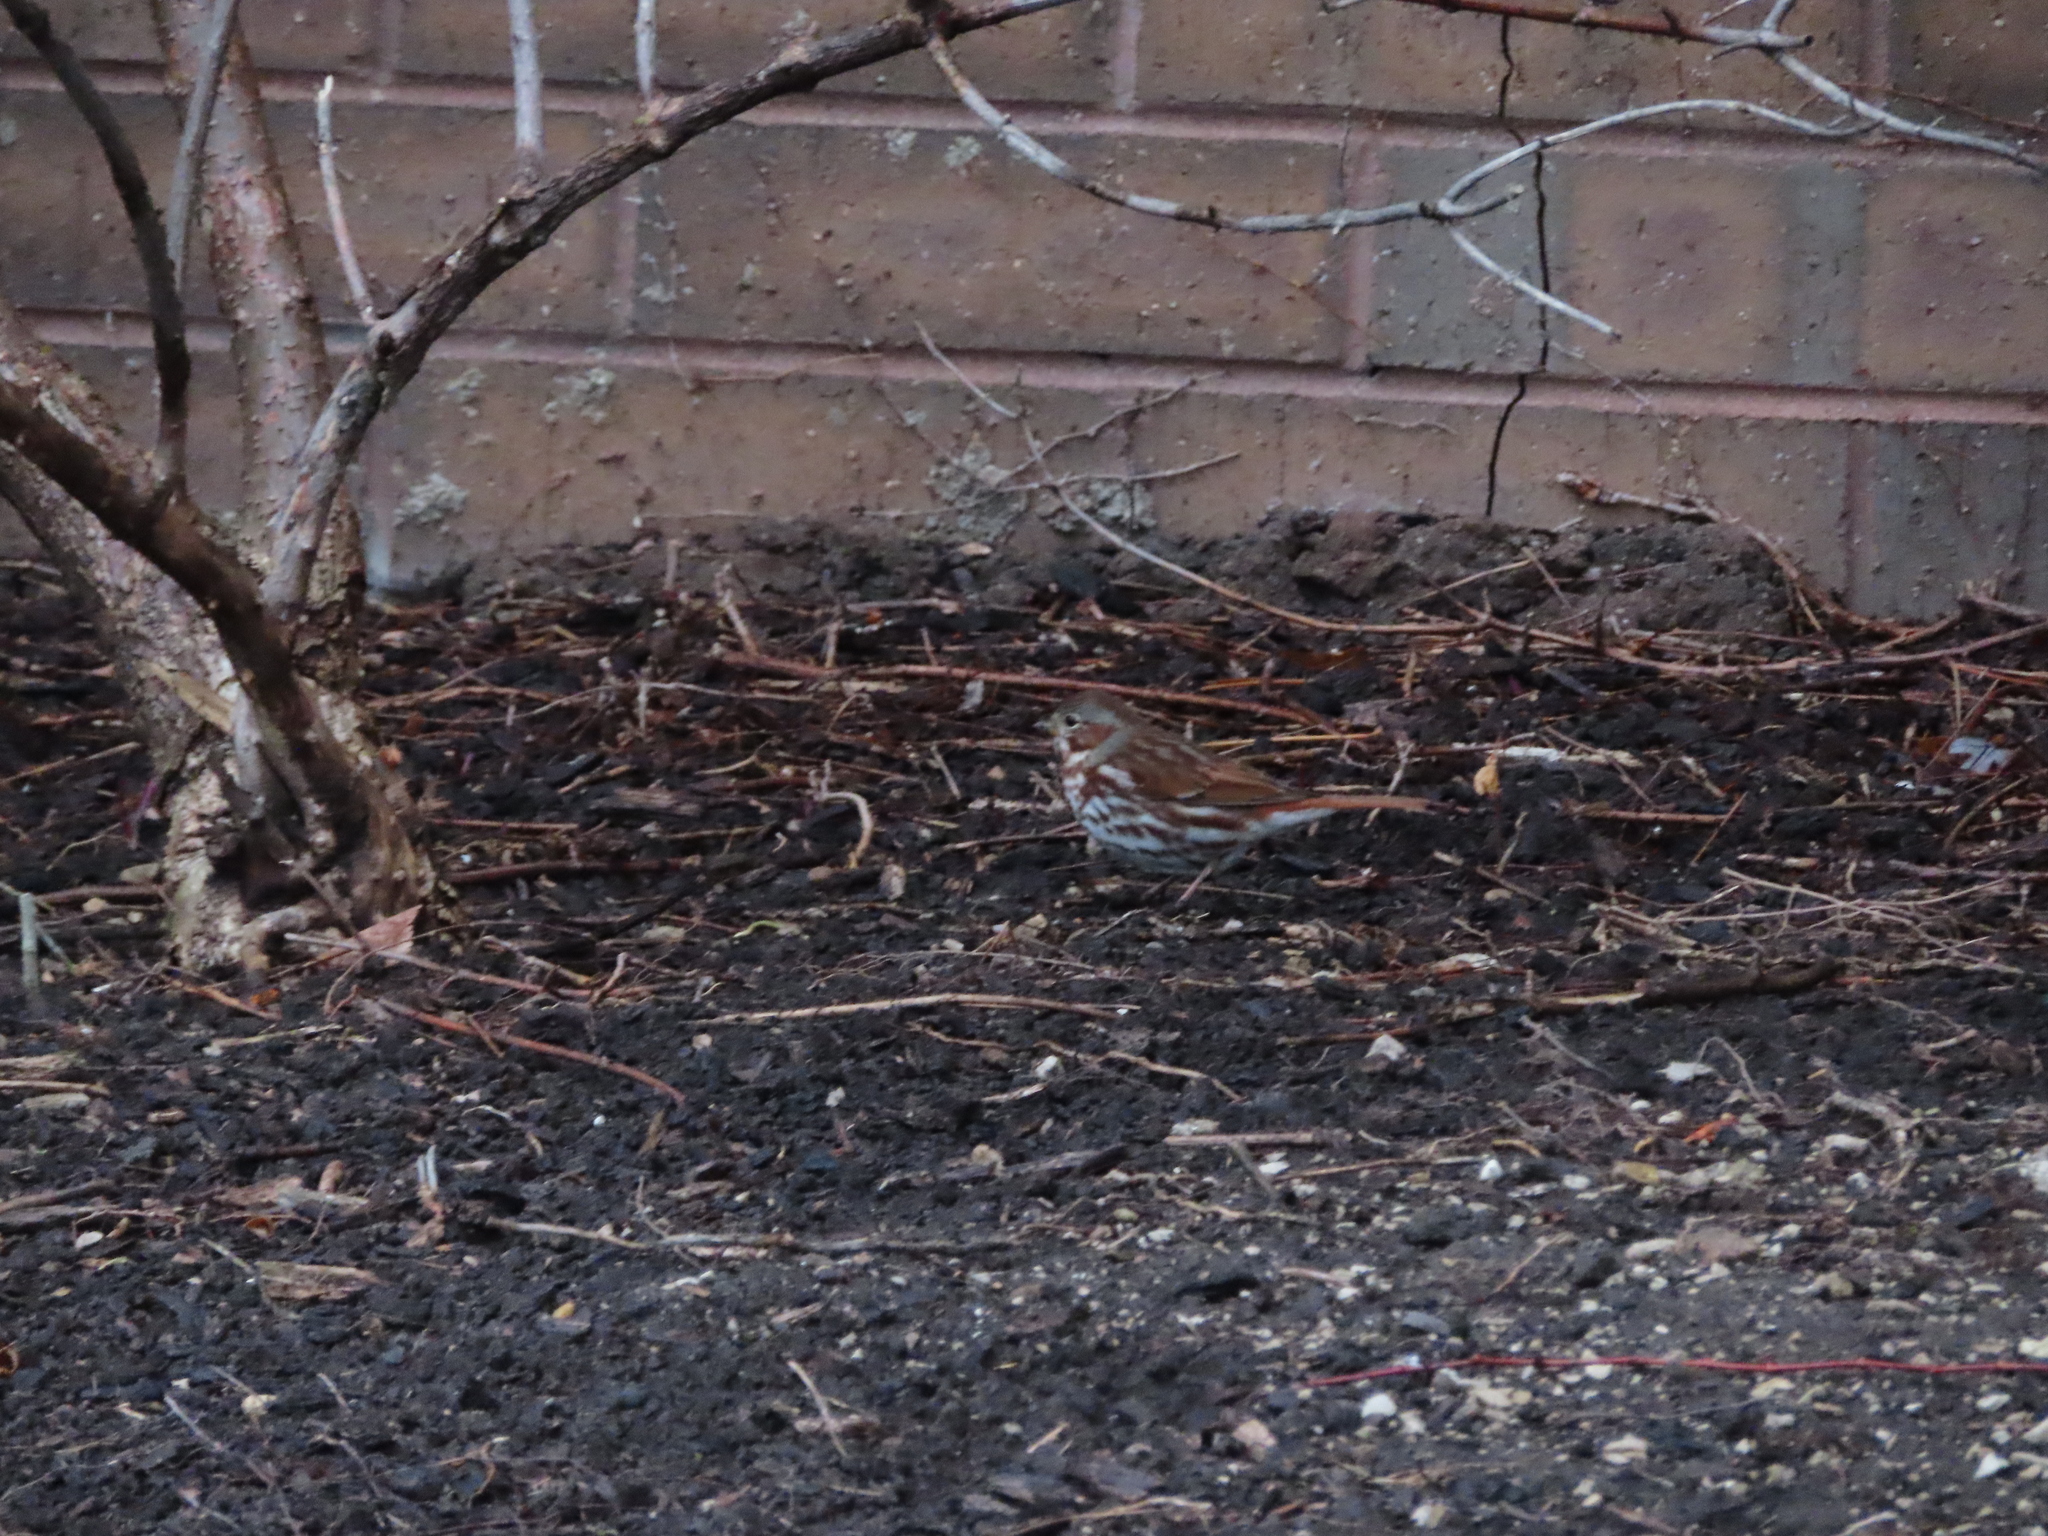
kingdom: Animalia
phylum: Chordata
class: Aves
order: Passeriformes
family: Passerellidae
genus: Passerella
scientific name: Passerella iliaca
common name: Fox sparrow
